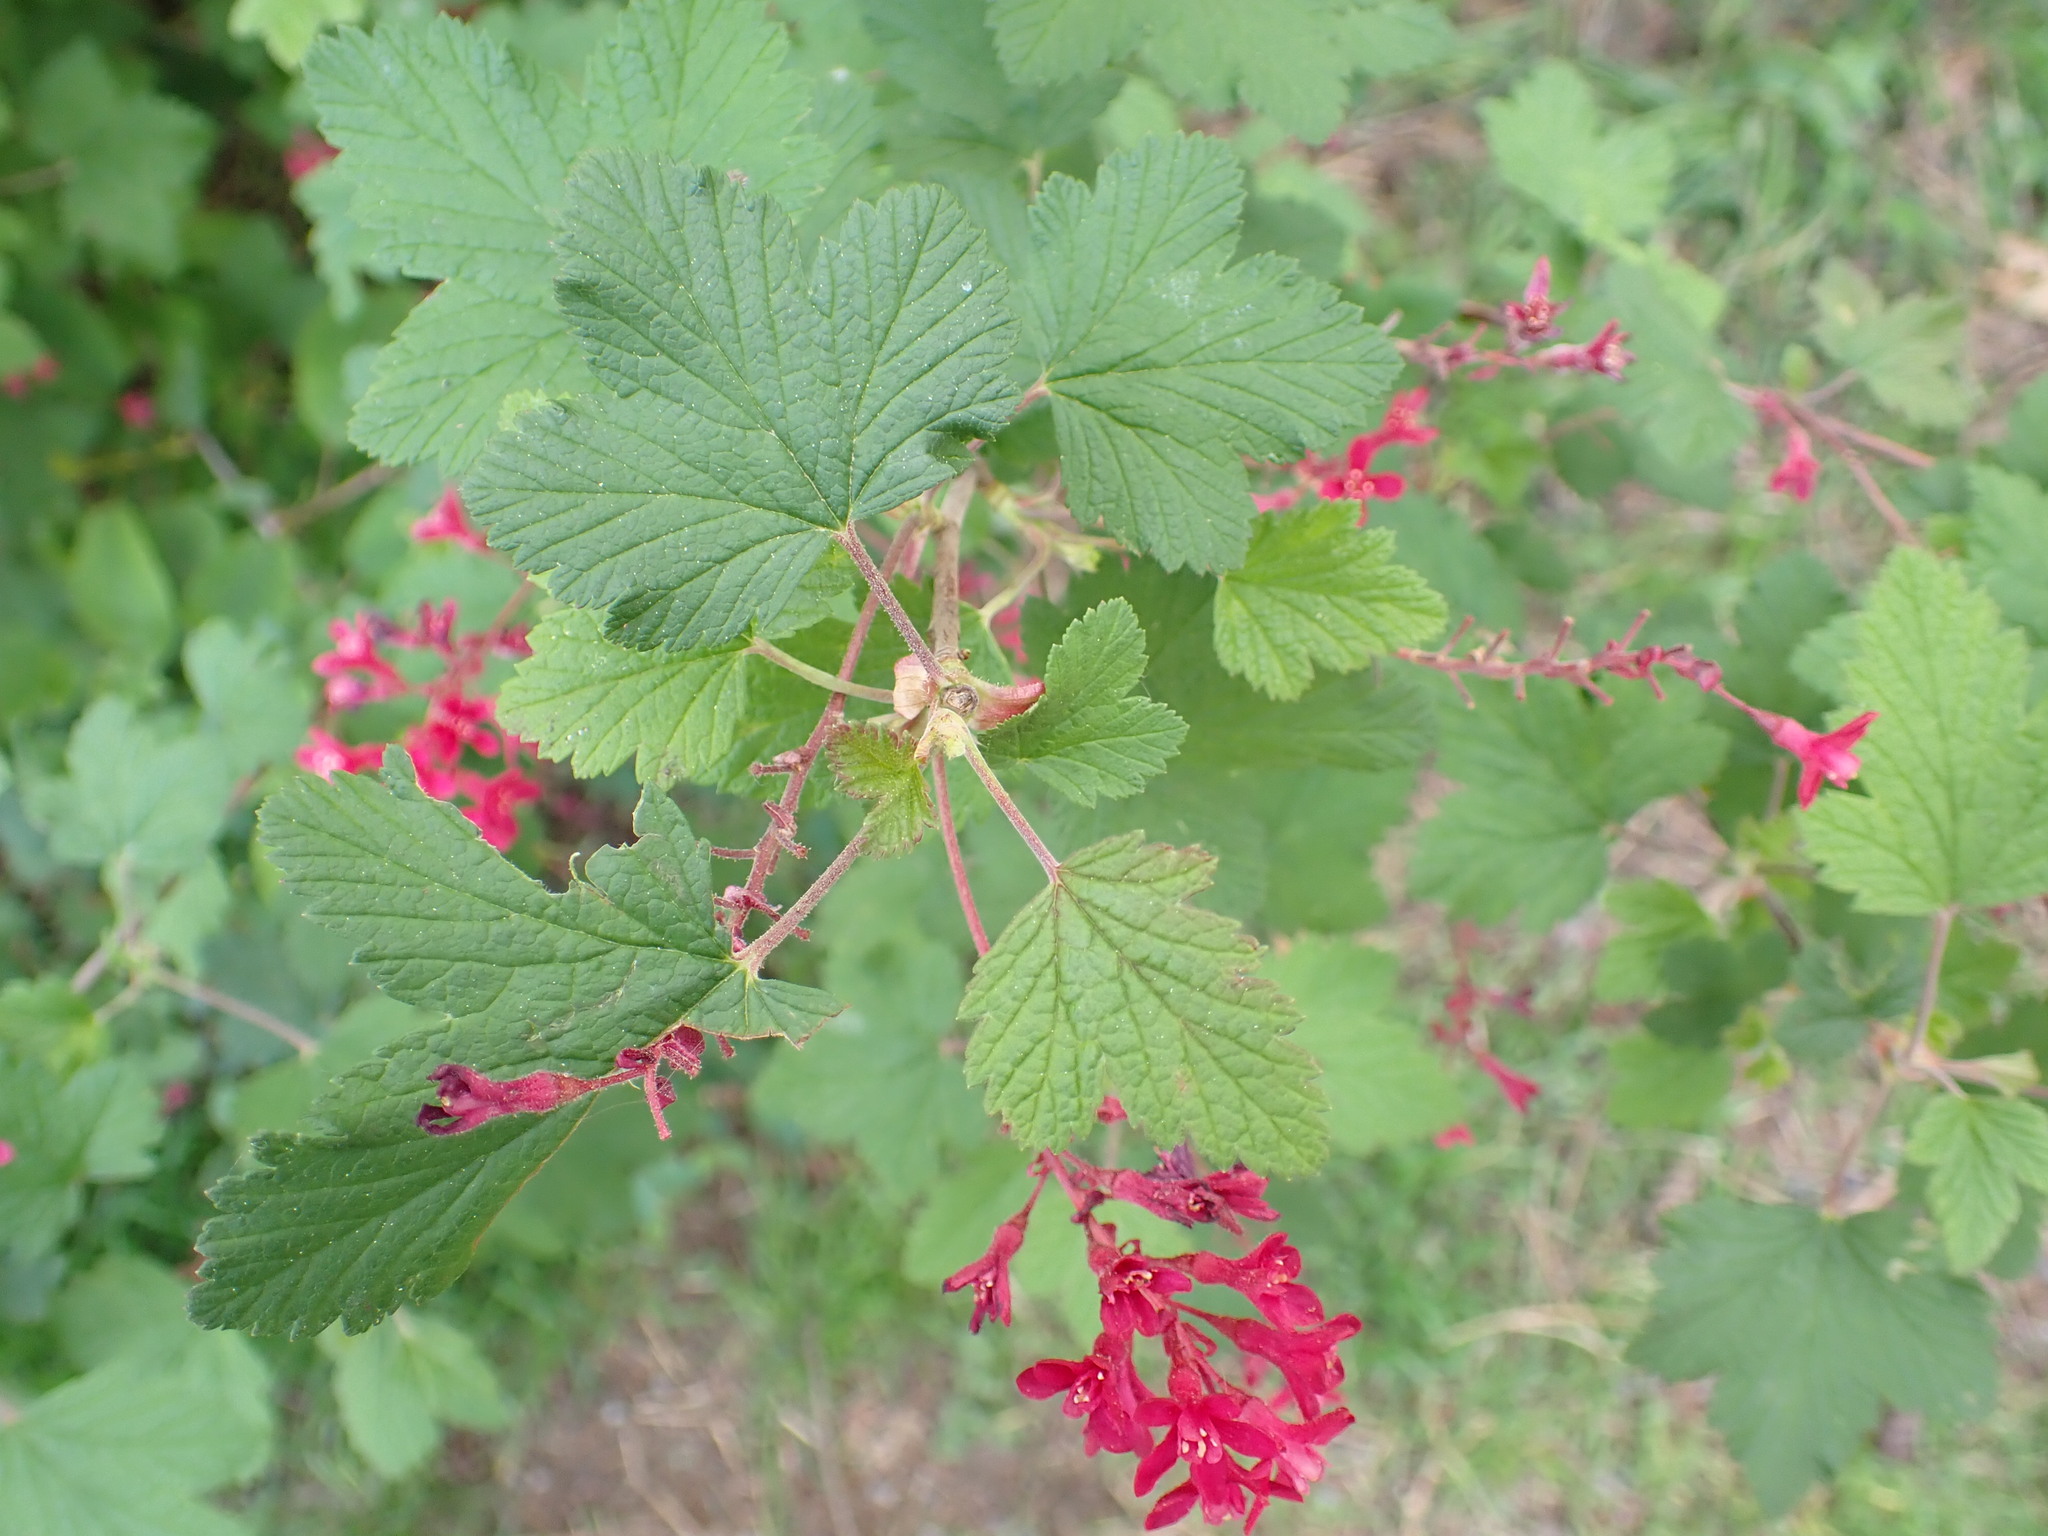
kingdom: Plantae
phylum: Tracheophyta
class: Magnoliopsida
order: Saxifragales
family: Grossulariaceae
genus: Ribes
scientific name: Ribes sanguineum
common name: Flowering currant
